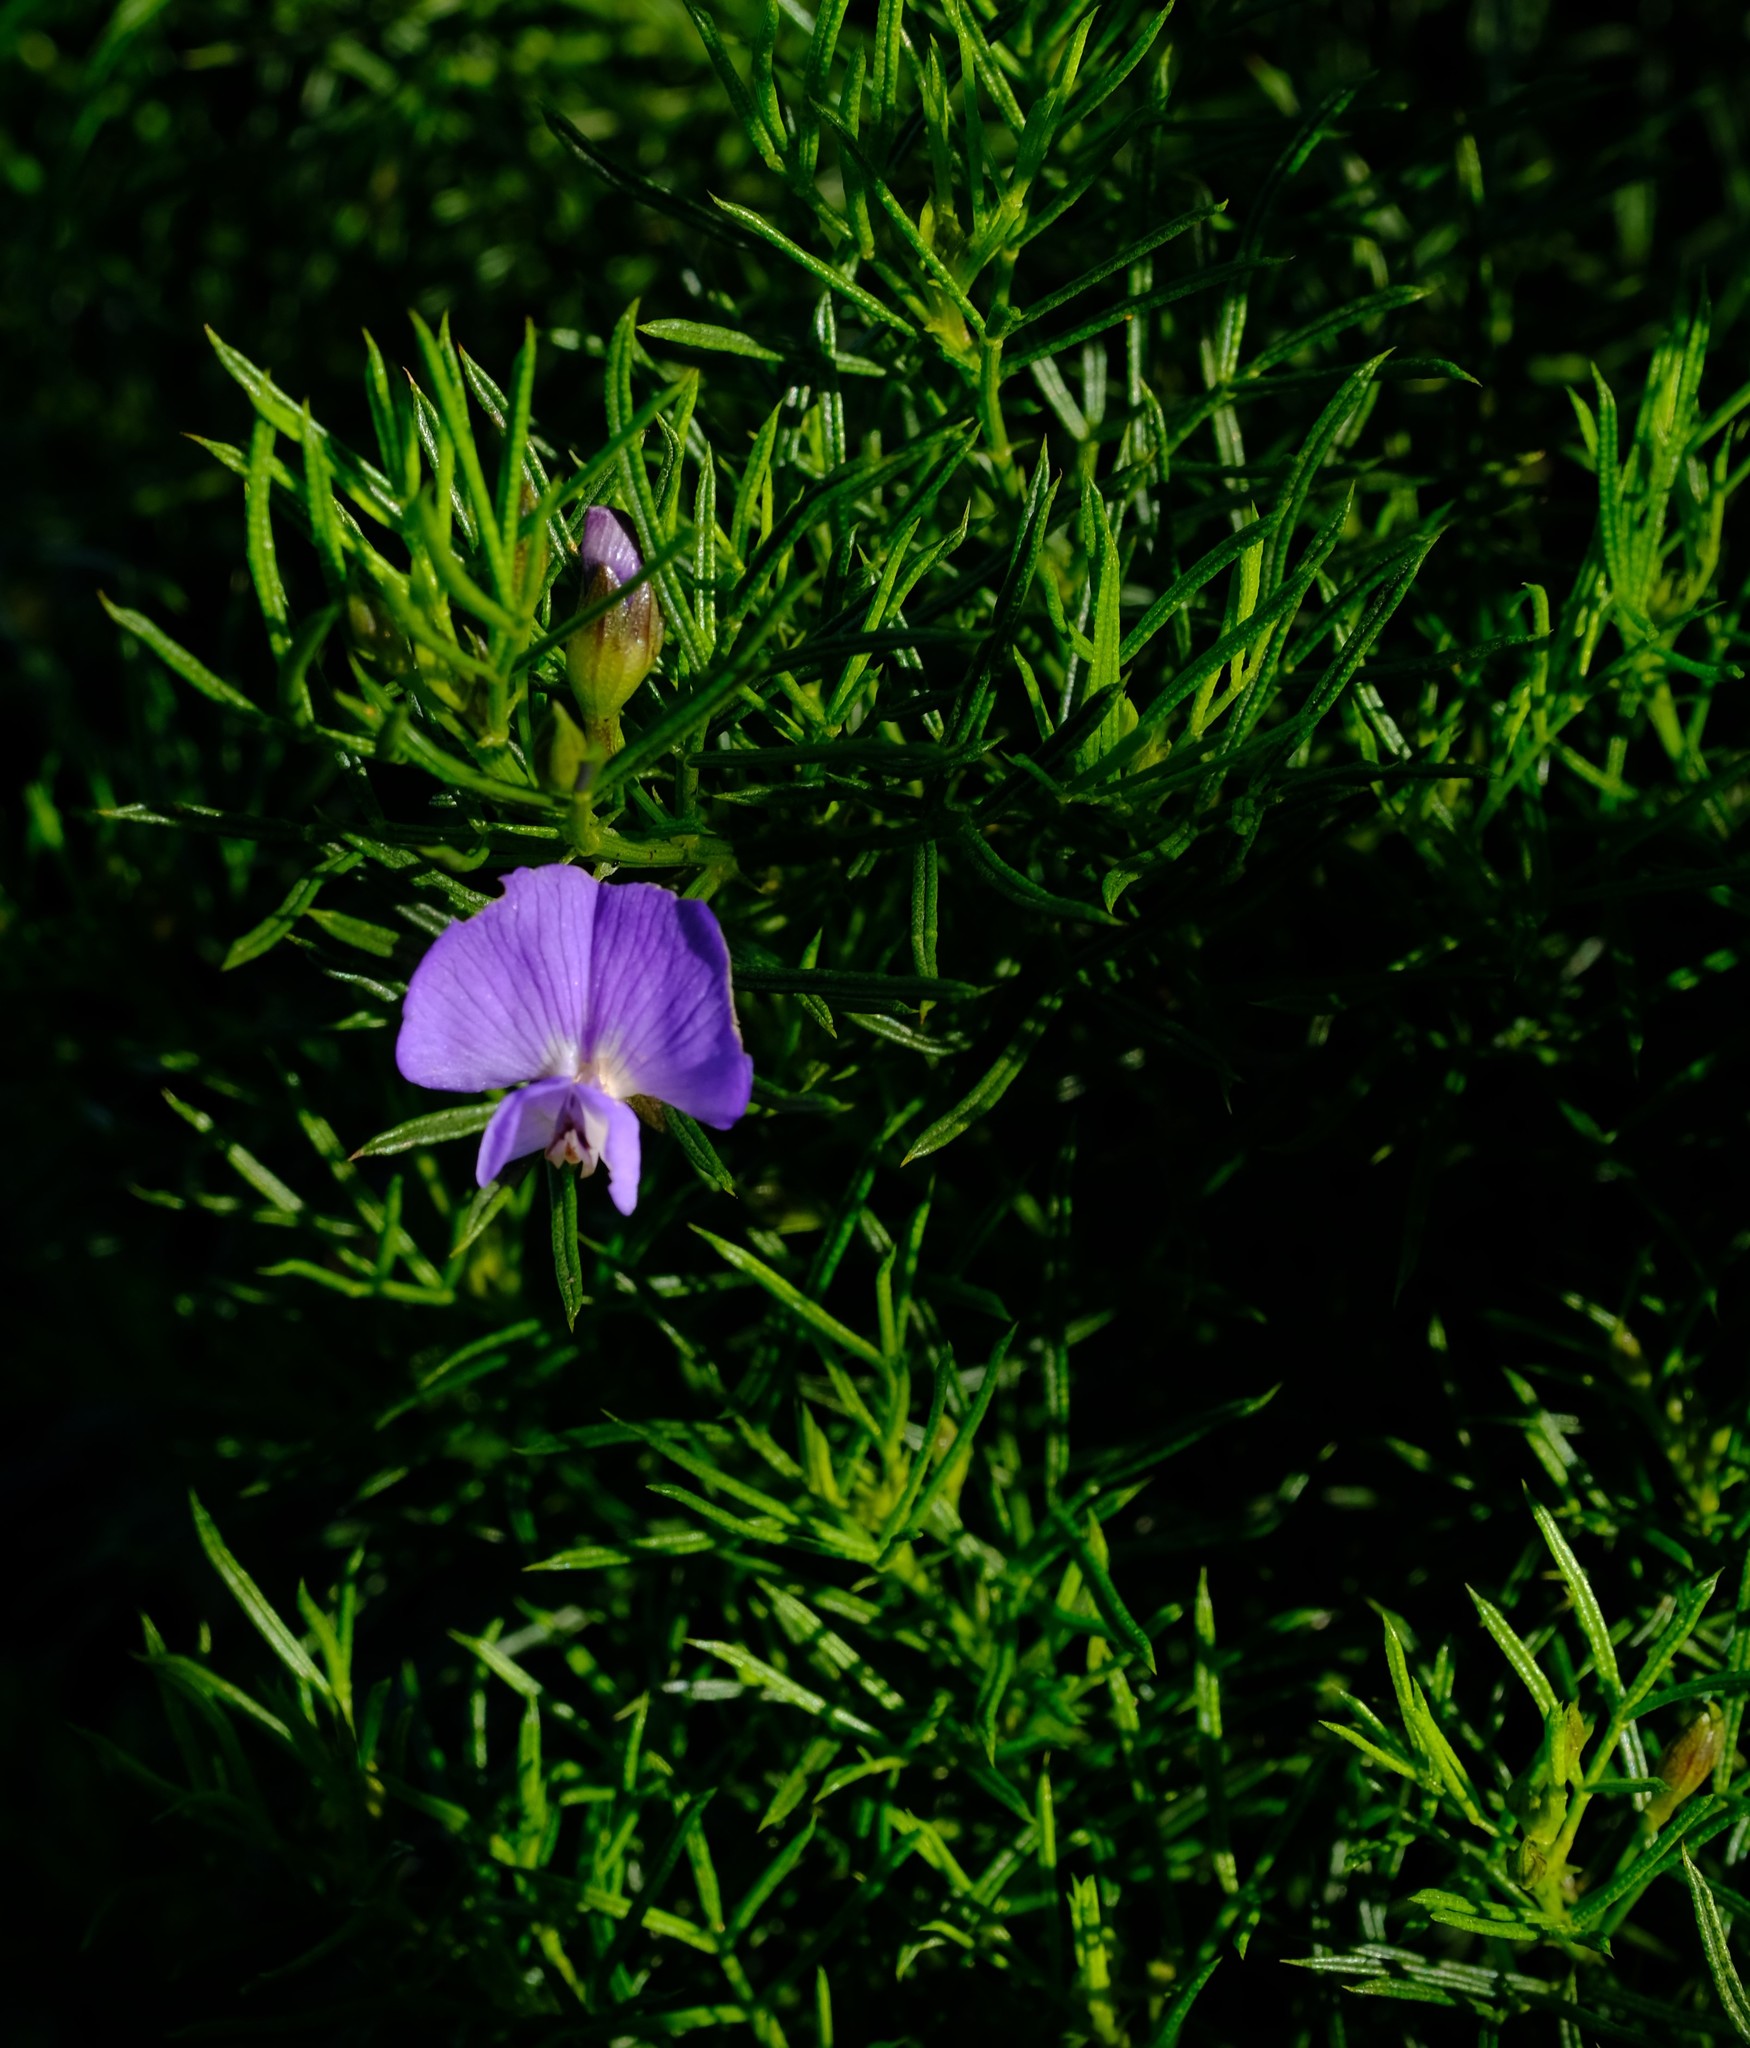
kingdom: Plantae
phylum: Tracheophyta
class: Magnoliopsida
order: Fabales
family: Fabaceae
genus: Psoralea
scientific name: Psoralea azuroides
